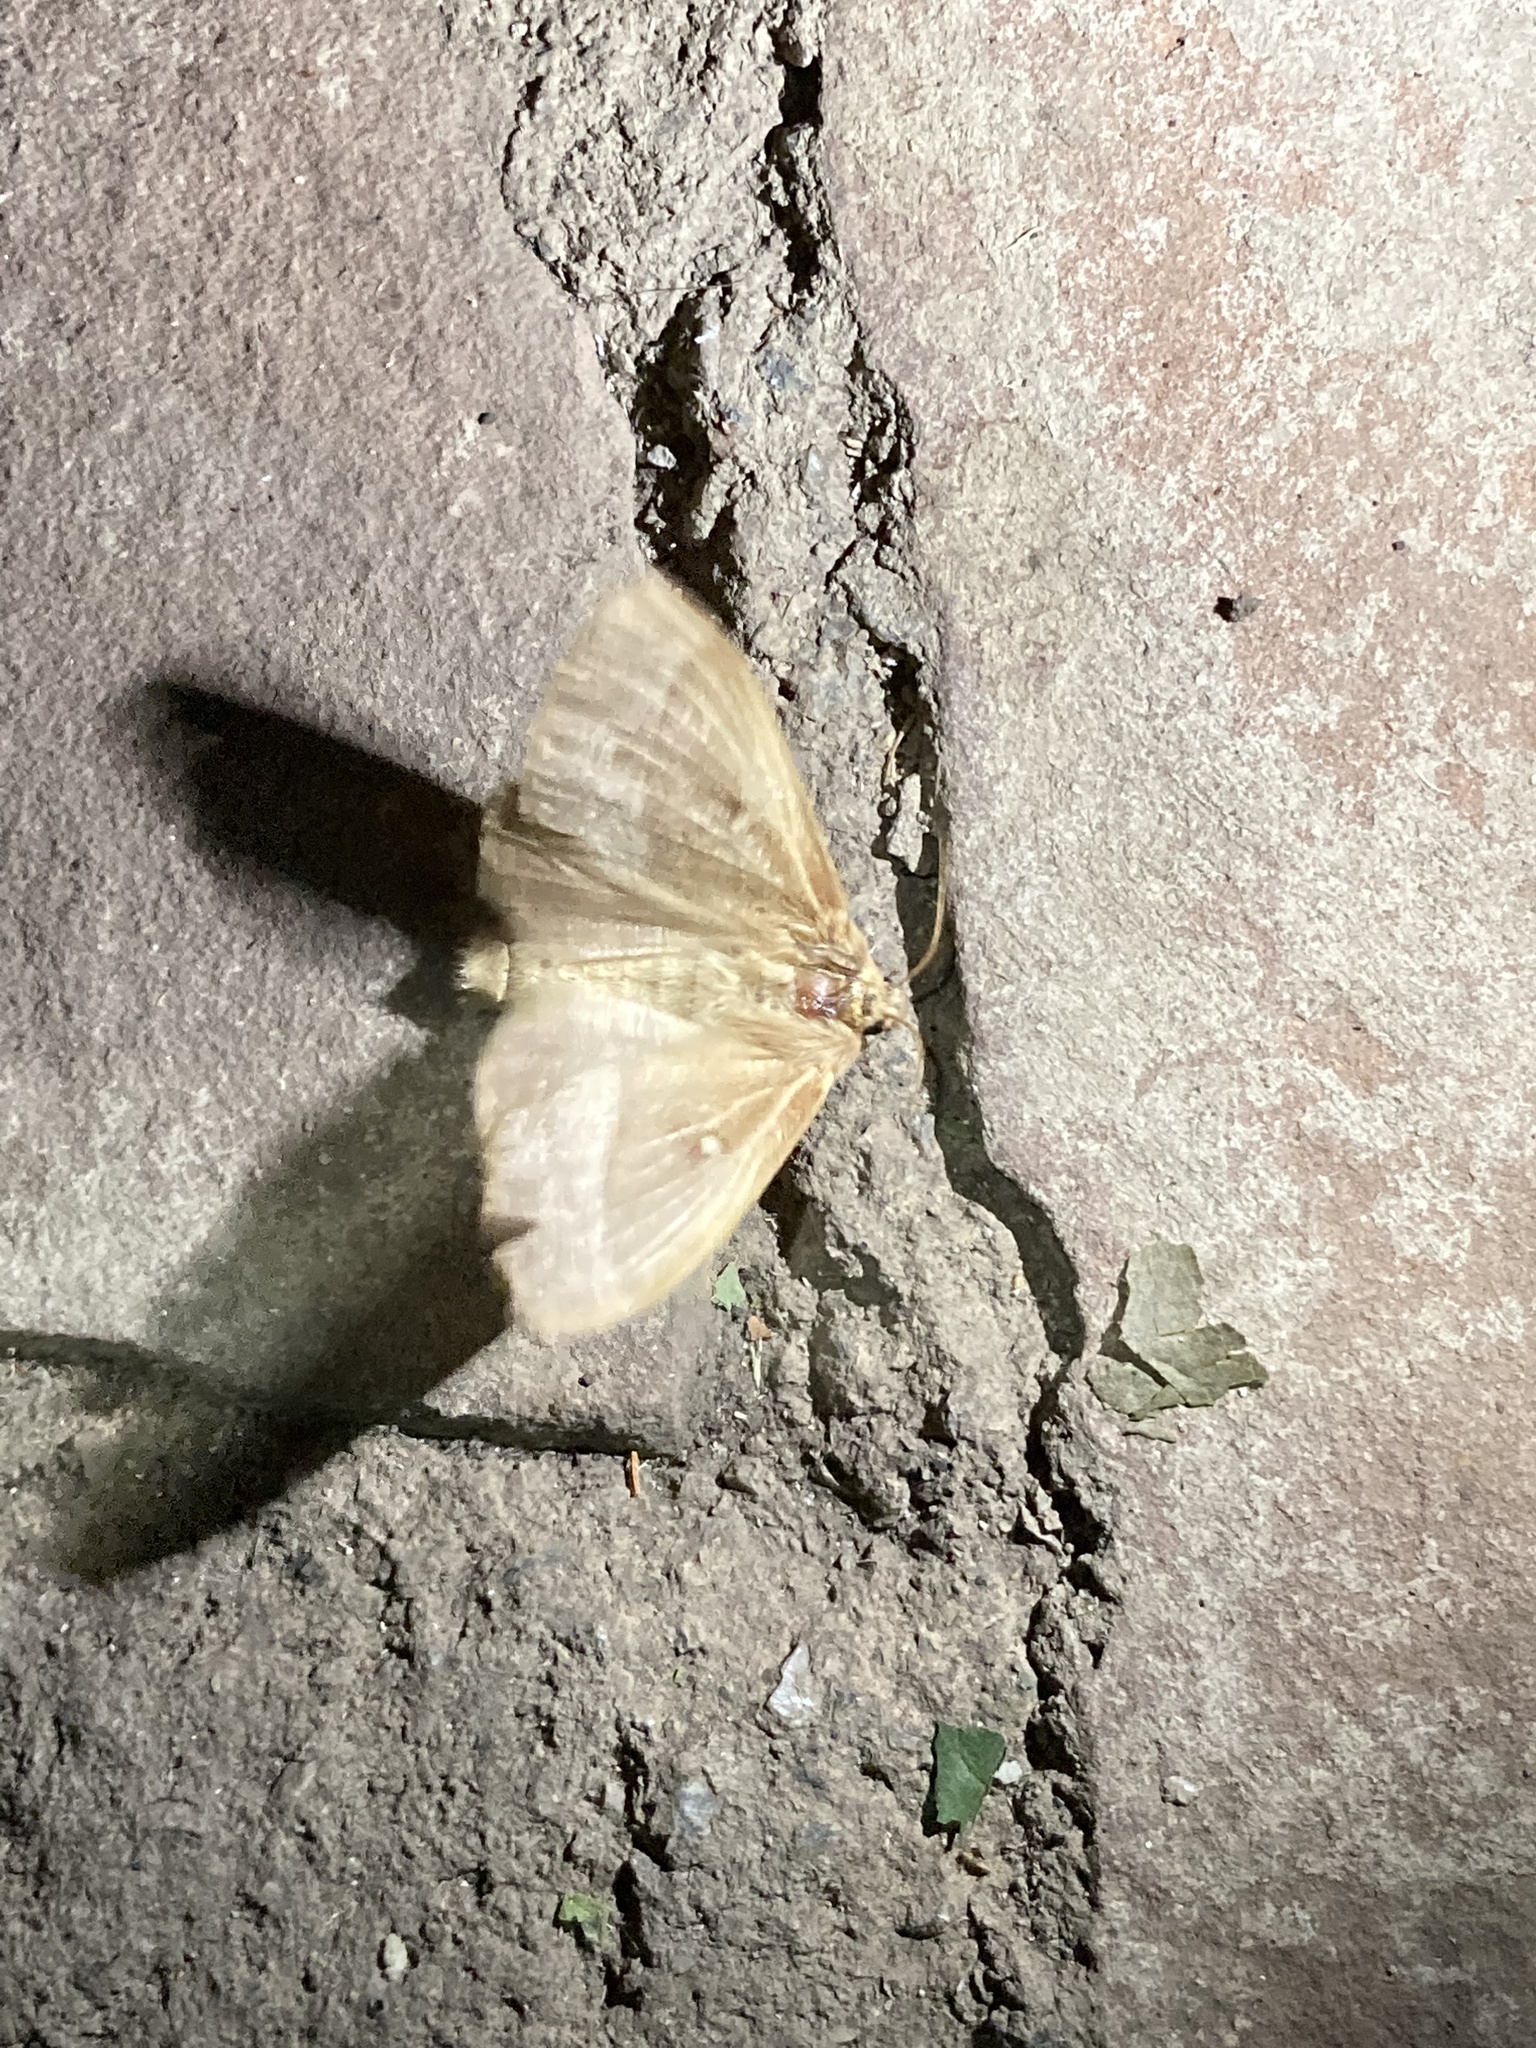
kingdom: Animalia
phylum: Arthropoda
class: Insecta
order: Lepidoptera
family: Lasiocampidae
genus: Lasiocampa
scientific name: Lasiocampa quercus
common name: Oak eggar
